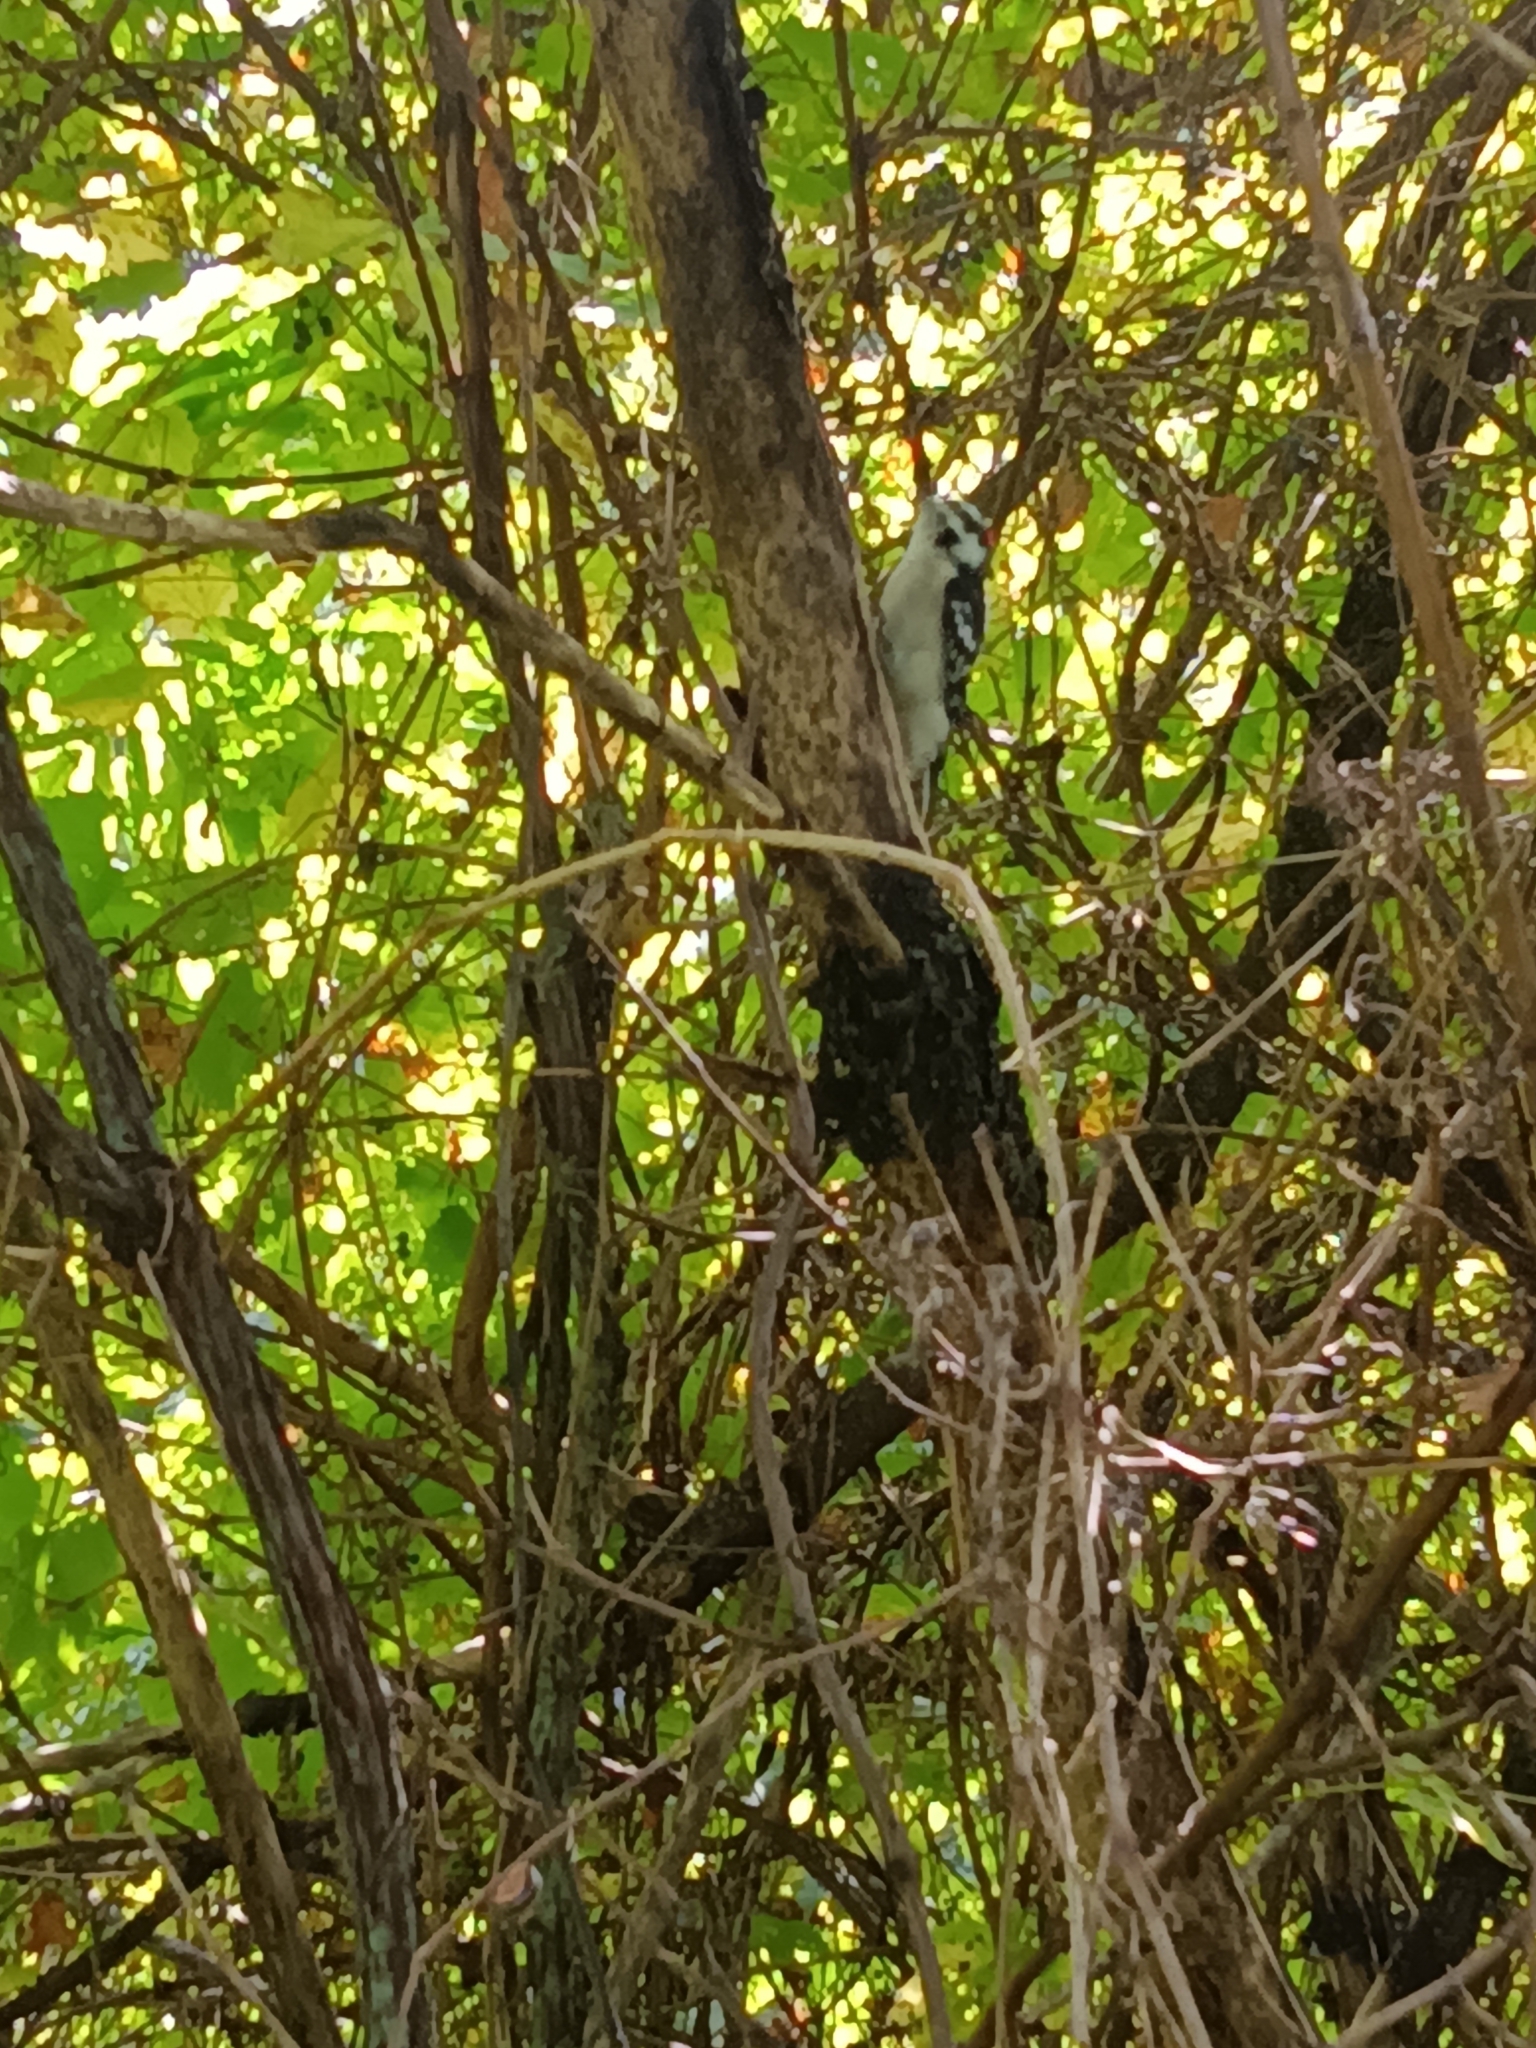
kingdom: Animalia
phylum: Chordata
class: Aves
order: Piciformes
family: Picidae
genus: Dryobates
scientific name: Dryobates pubescens
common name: Downy woodpecker
